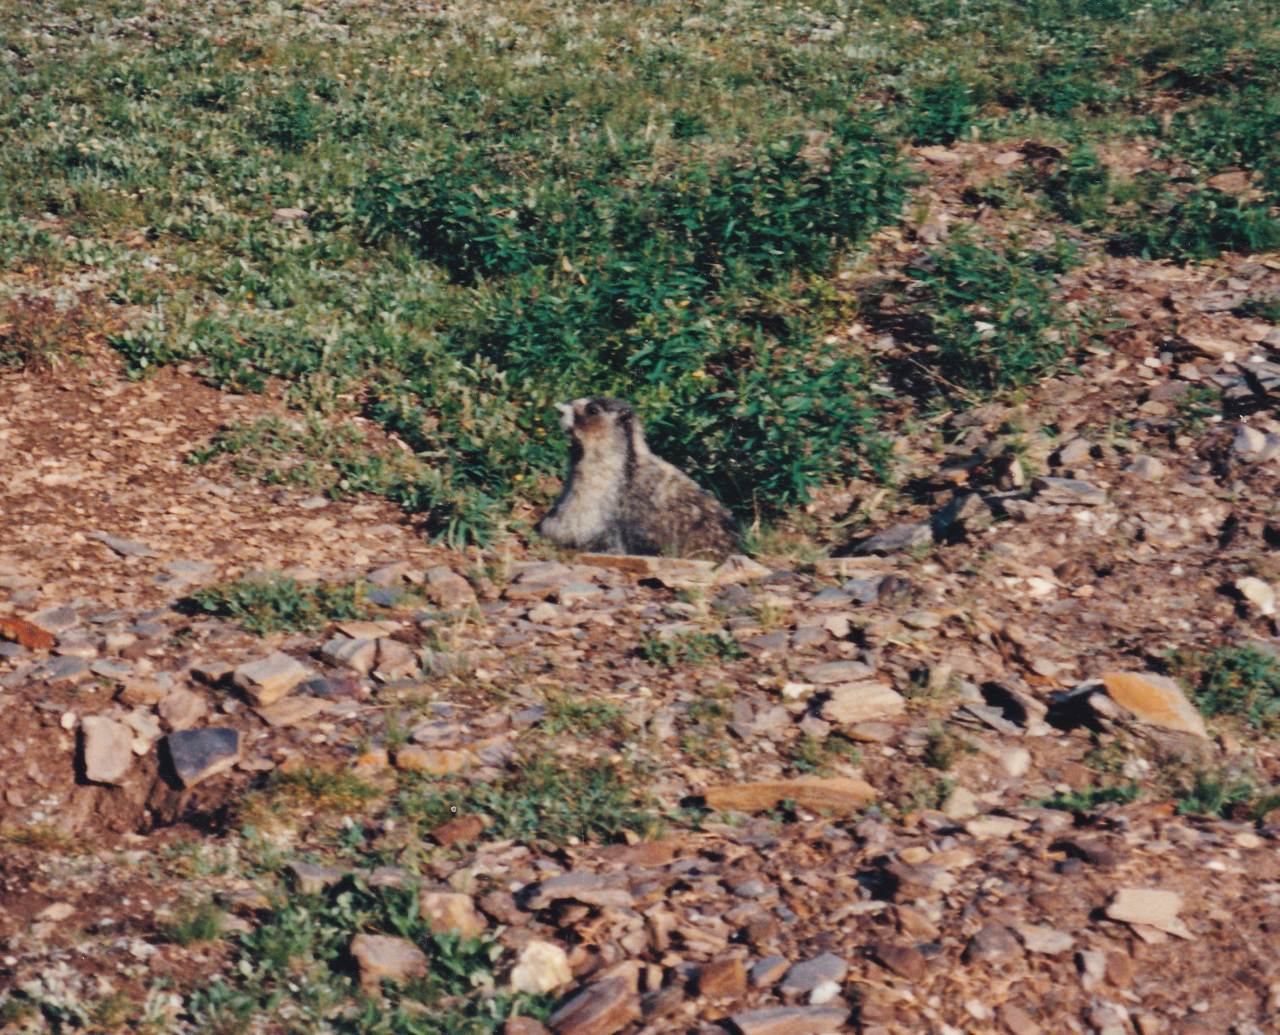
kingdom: Animalia
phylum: Chordata
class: Mammalia
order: Rodentia
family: Sciuridae
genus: Marmota
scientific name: Marmota caligata
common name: Hoary marmot
